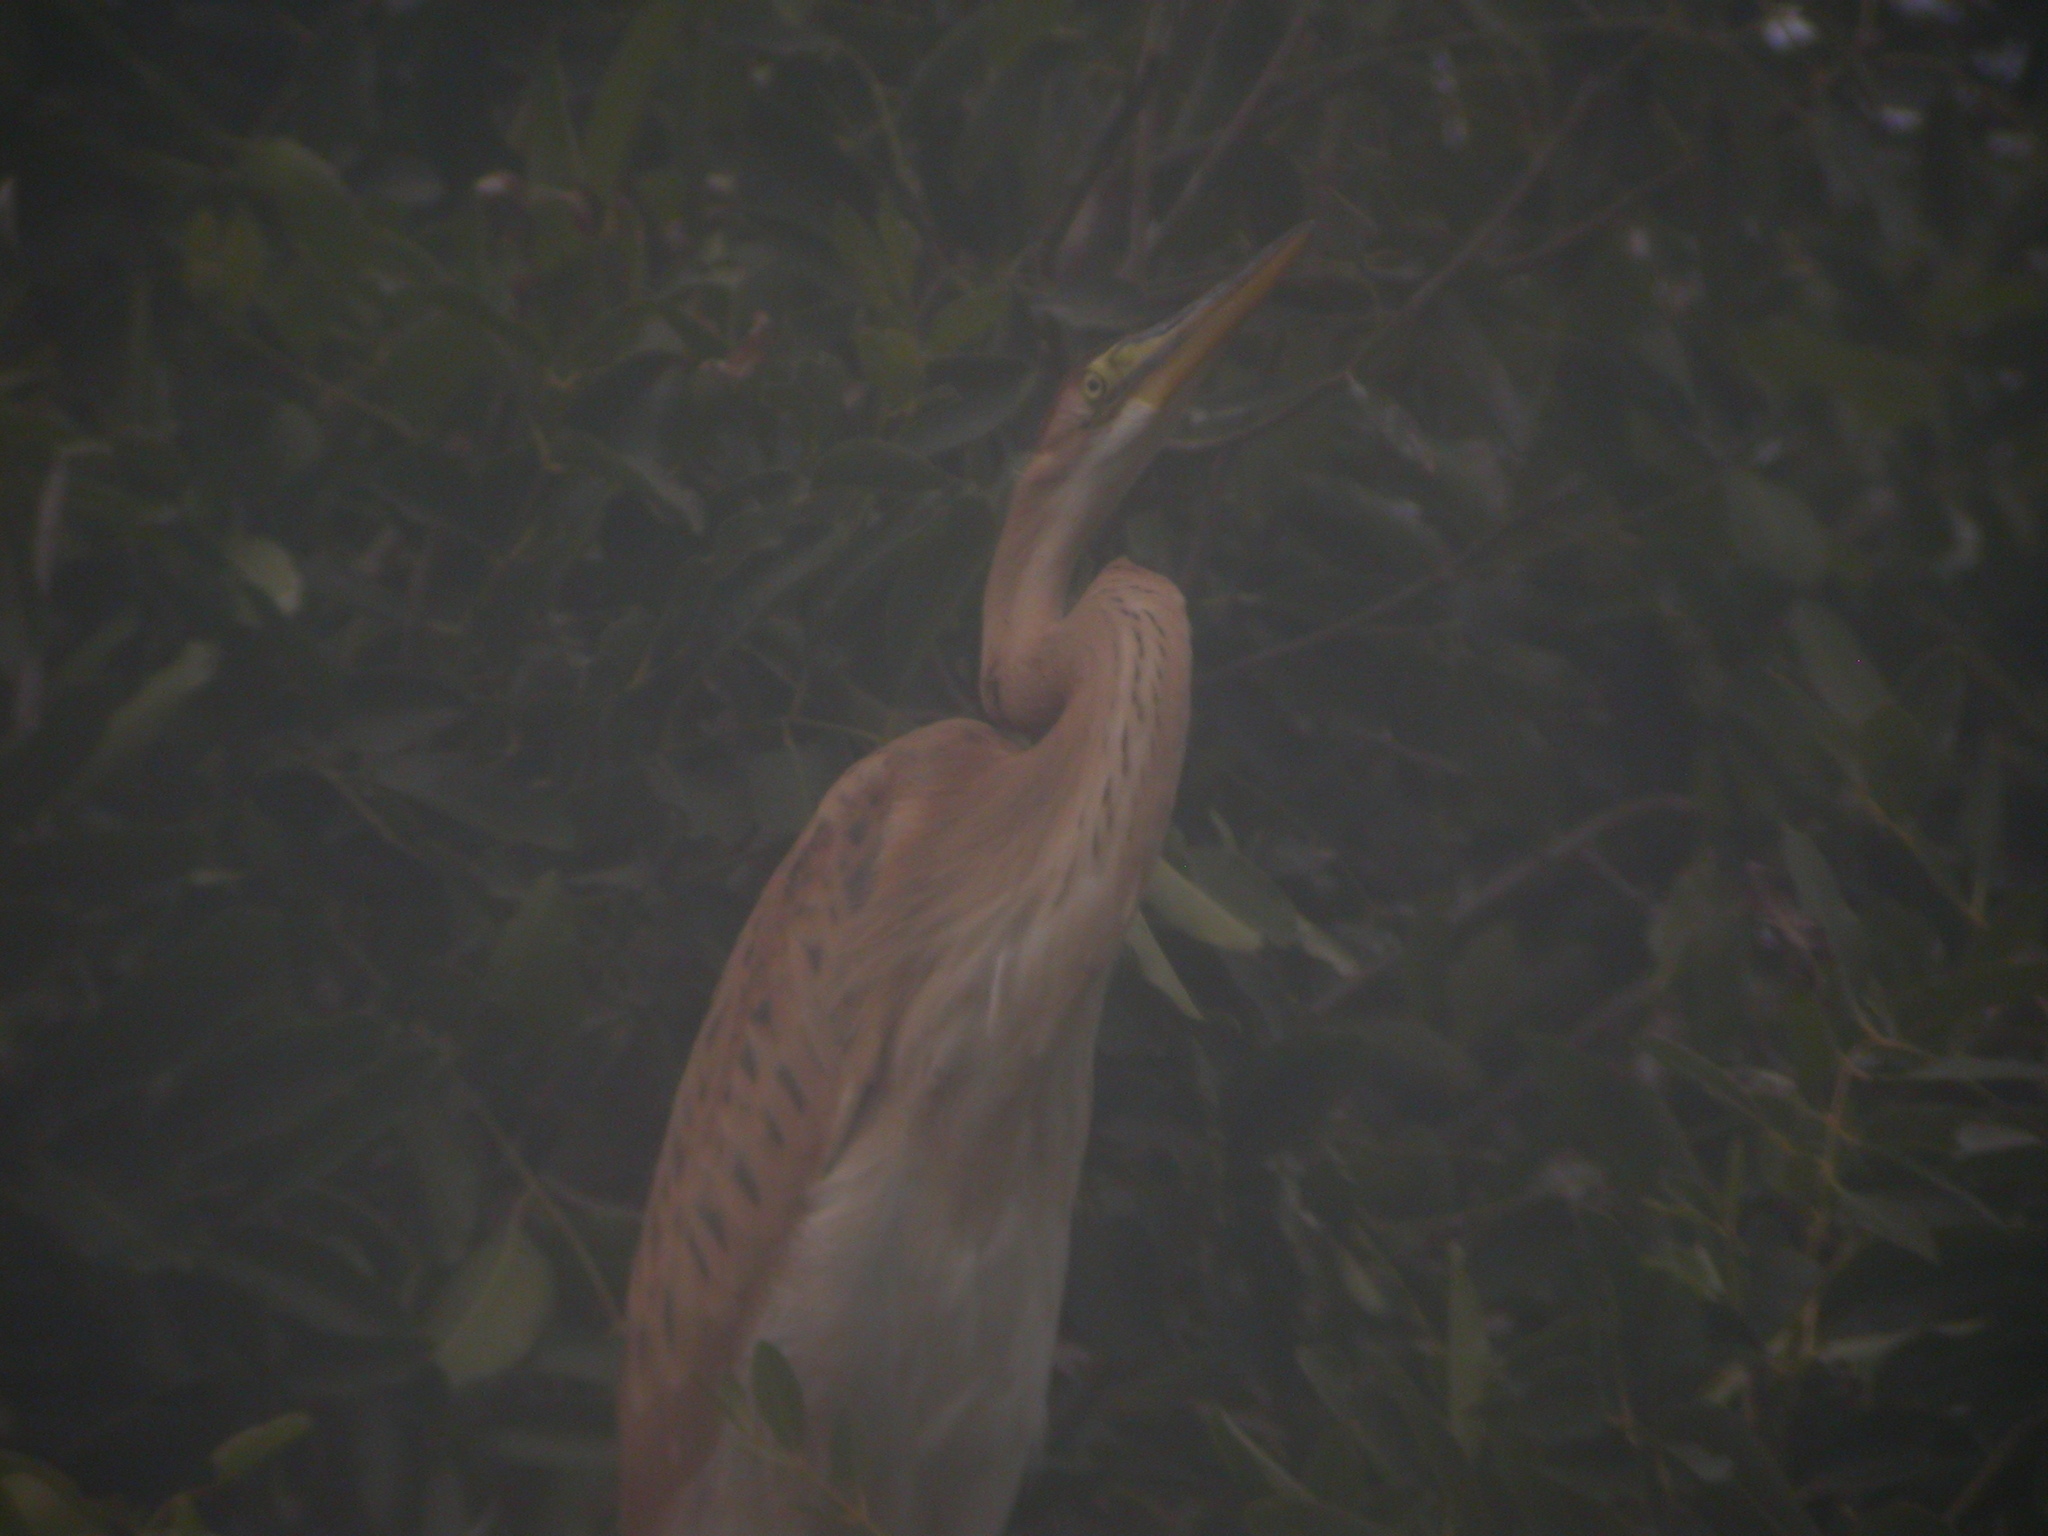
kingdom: Animalia
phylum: Chordata
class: Aves
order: Pelecaniformes
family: Ardeidae
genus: Ardea
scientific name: Ardea purpurea
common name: Purple heron
